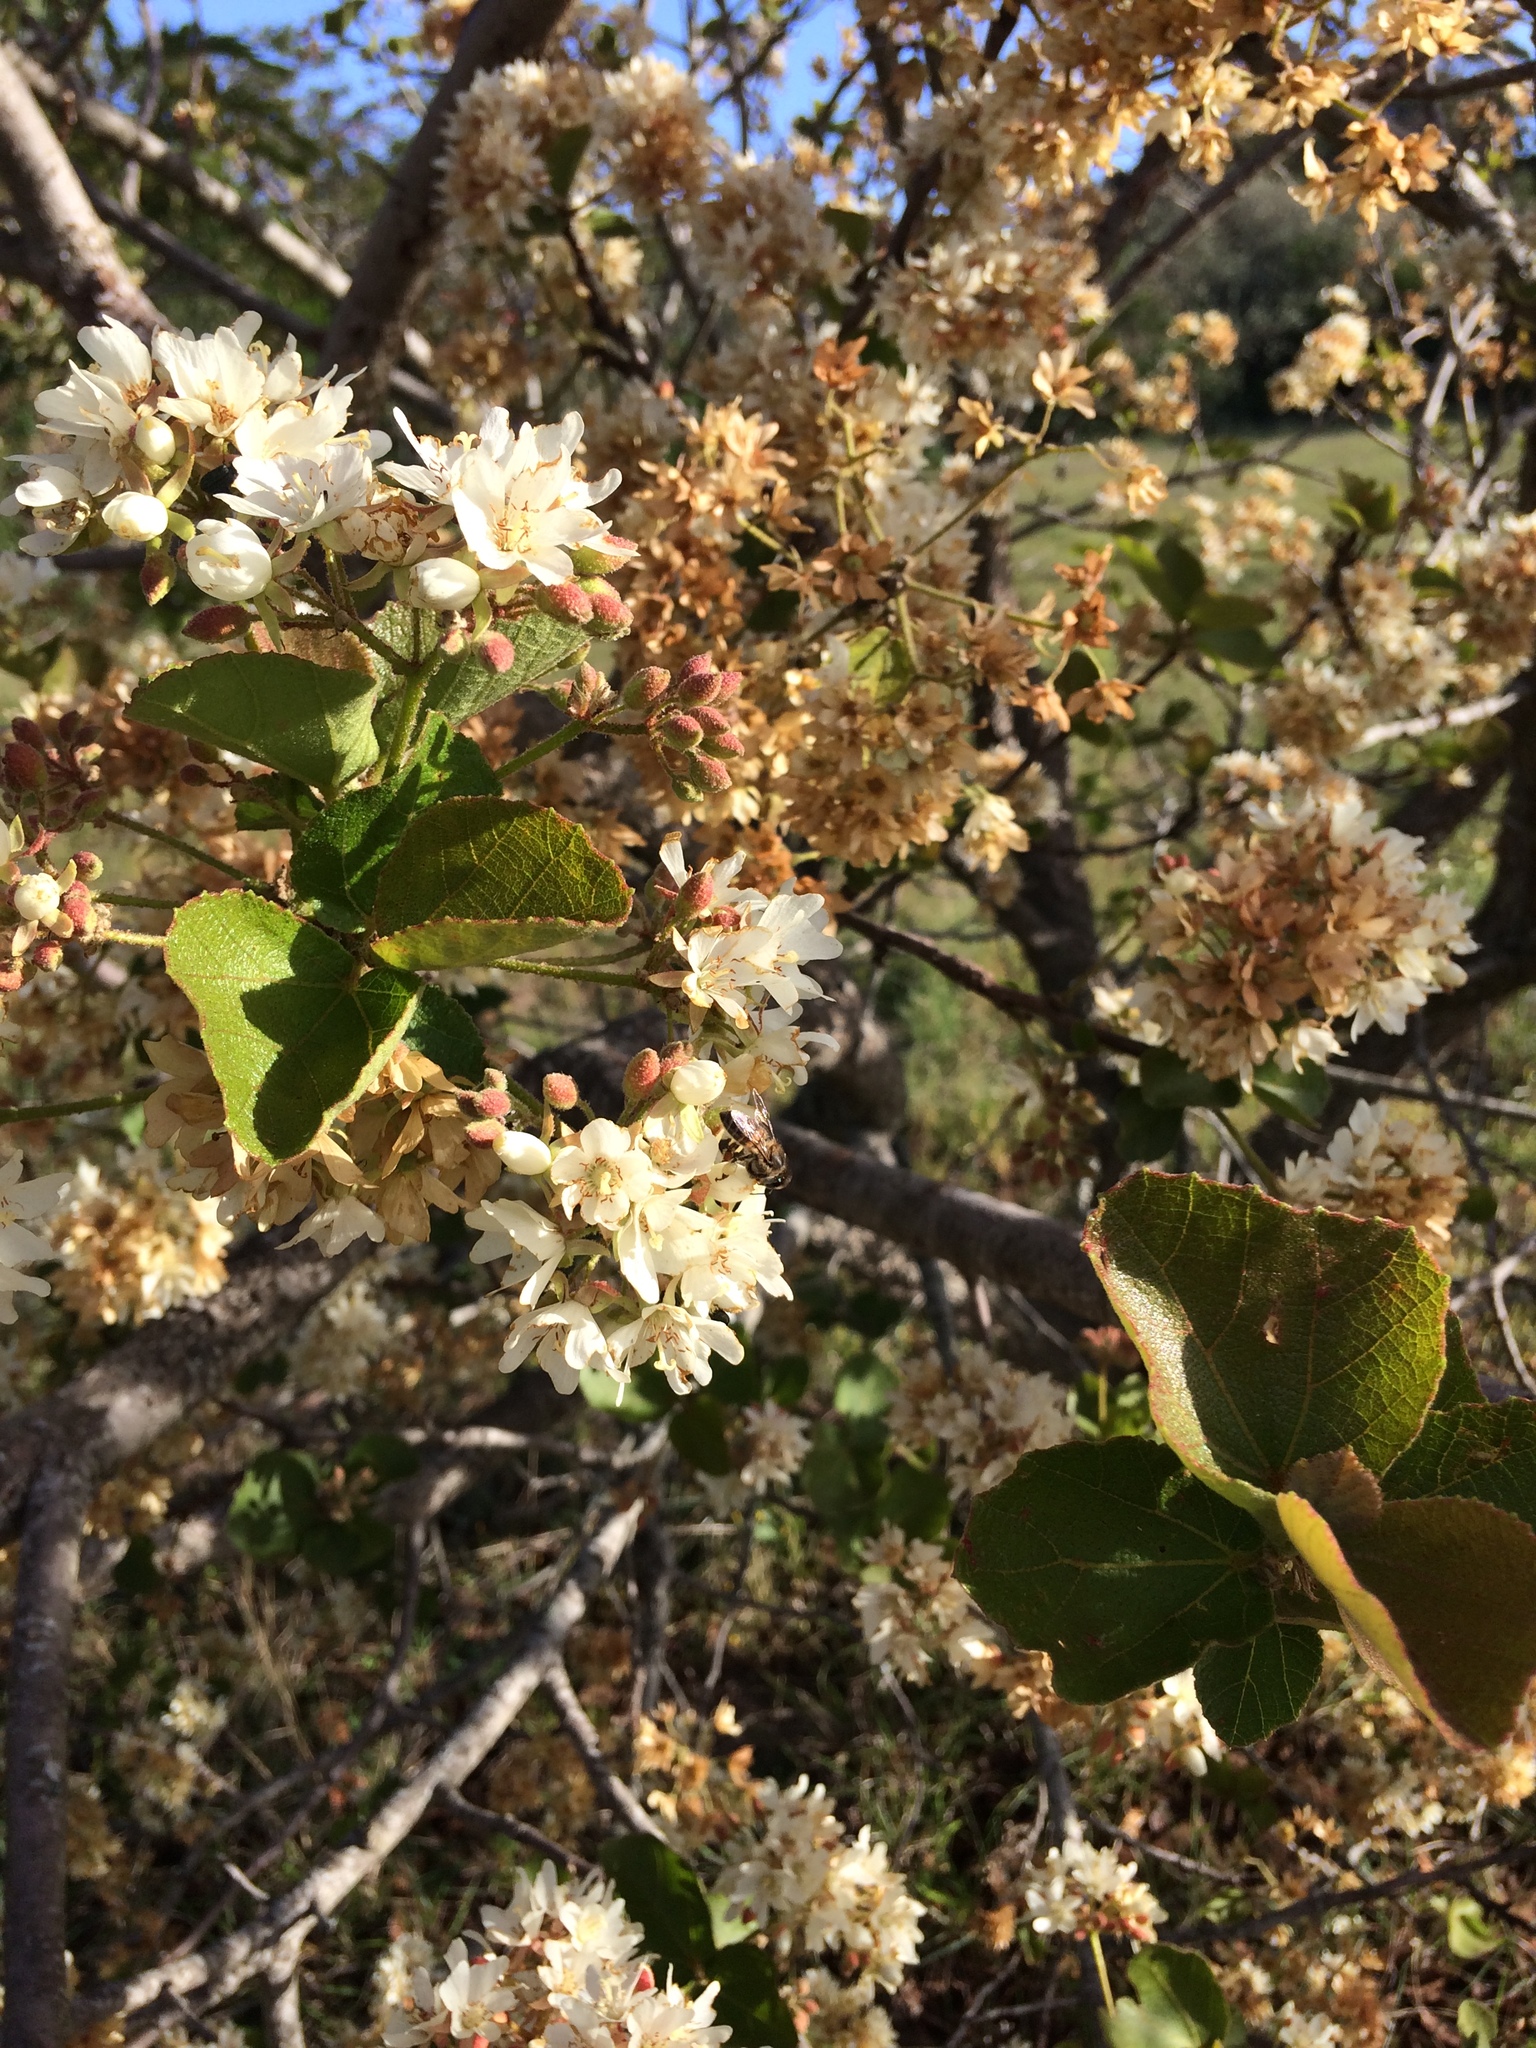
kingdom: Animalia
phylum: Arthropoda
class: Insecta
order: Hymenoptera
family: Apidae
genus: Apis
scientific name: Apis mellifera
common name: Honey bee
